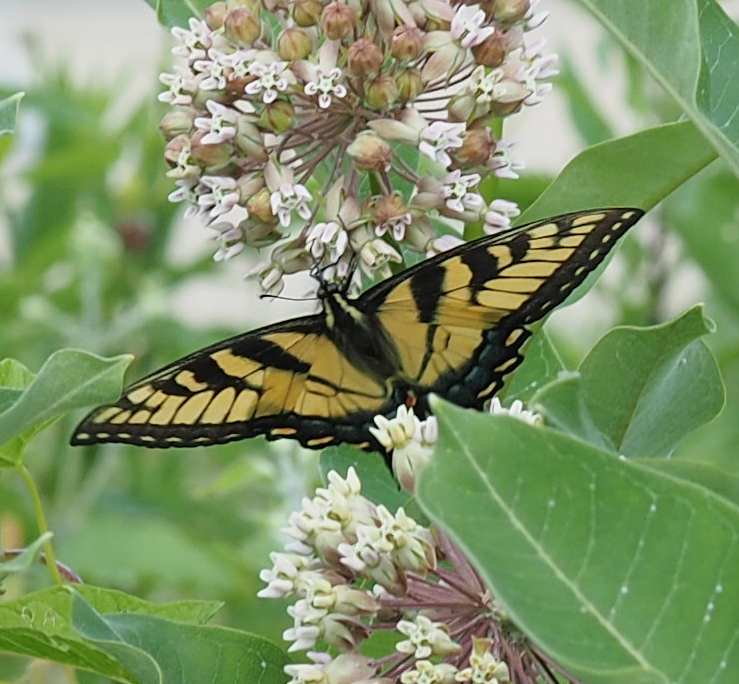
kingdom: Animalia
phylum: Arthropoda
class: Insecta
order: Lepidoptera
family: Papilionidae
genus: Papilio
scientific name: Papilio glaucus
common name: Tiger swallowtail
